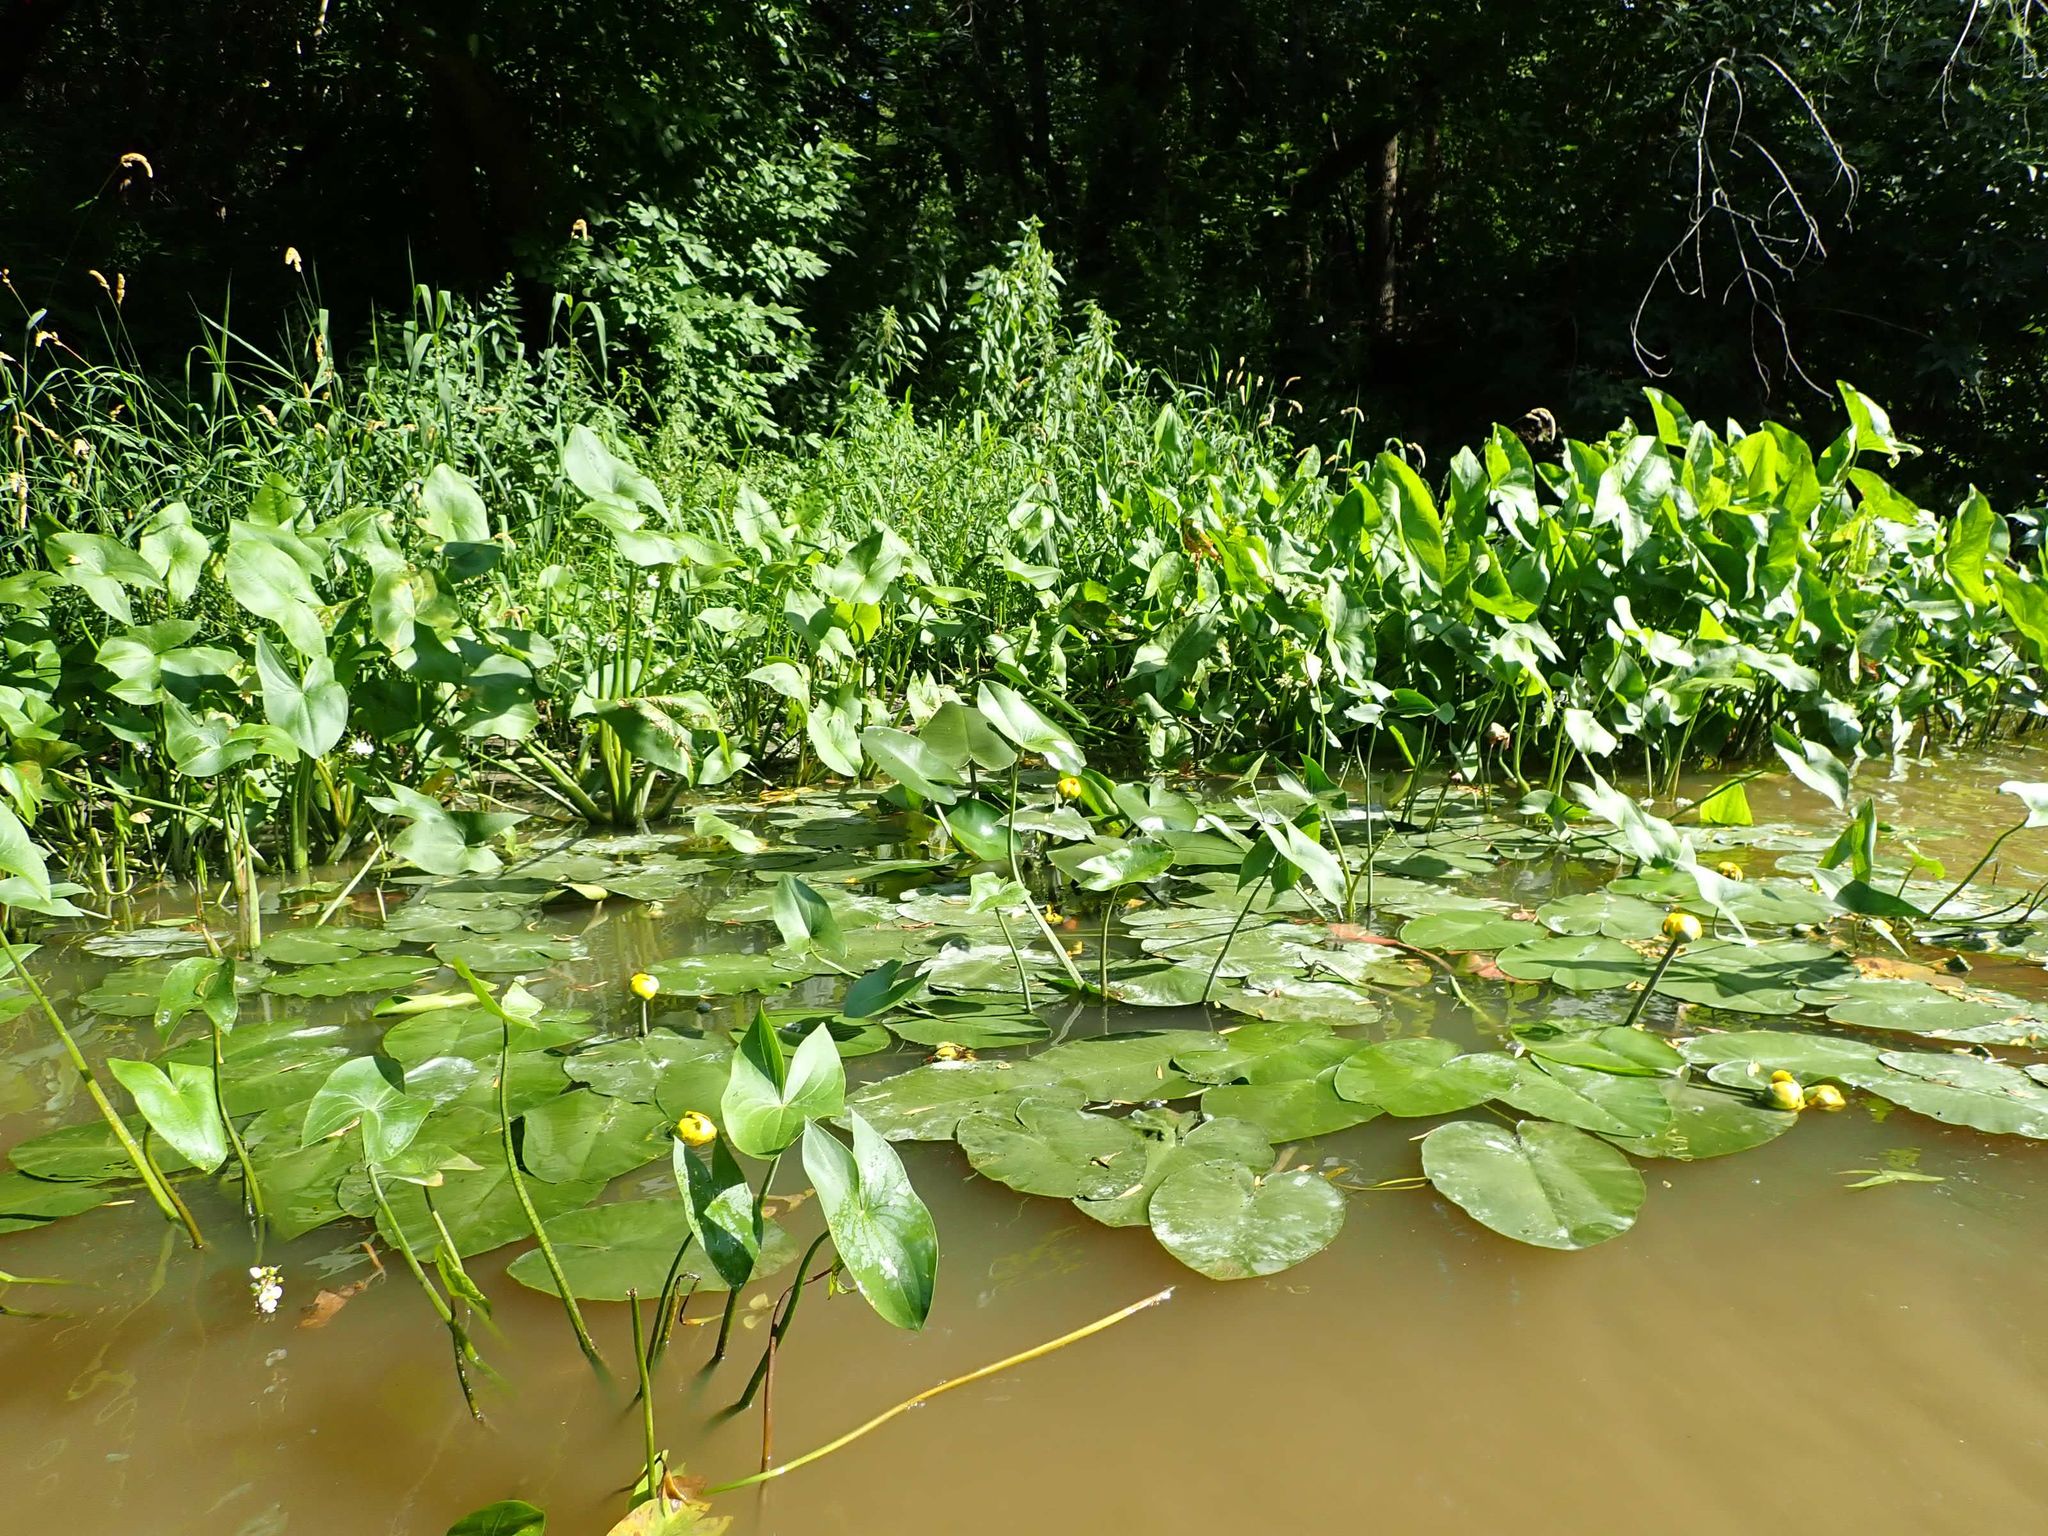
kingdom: Plantae
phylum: Tracheophyta
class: Magnoliopsida
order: Nymphaeales
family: Nymphaeaceae
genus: Nuphar
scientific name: Nuphar variegata
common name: Beaver-root
